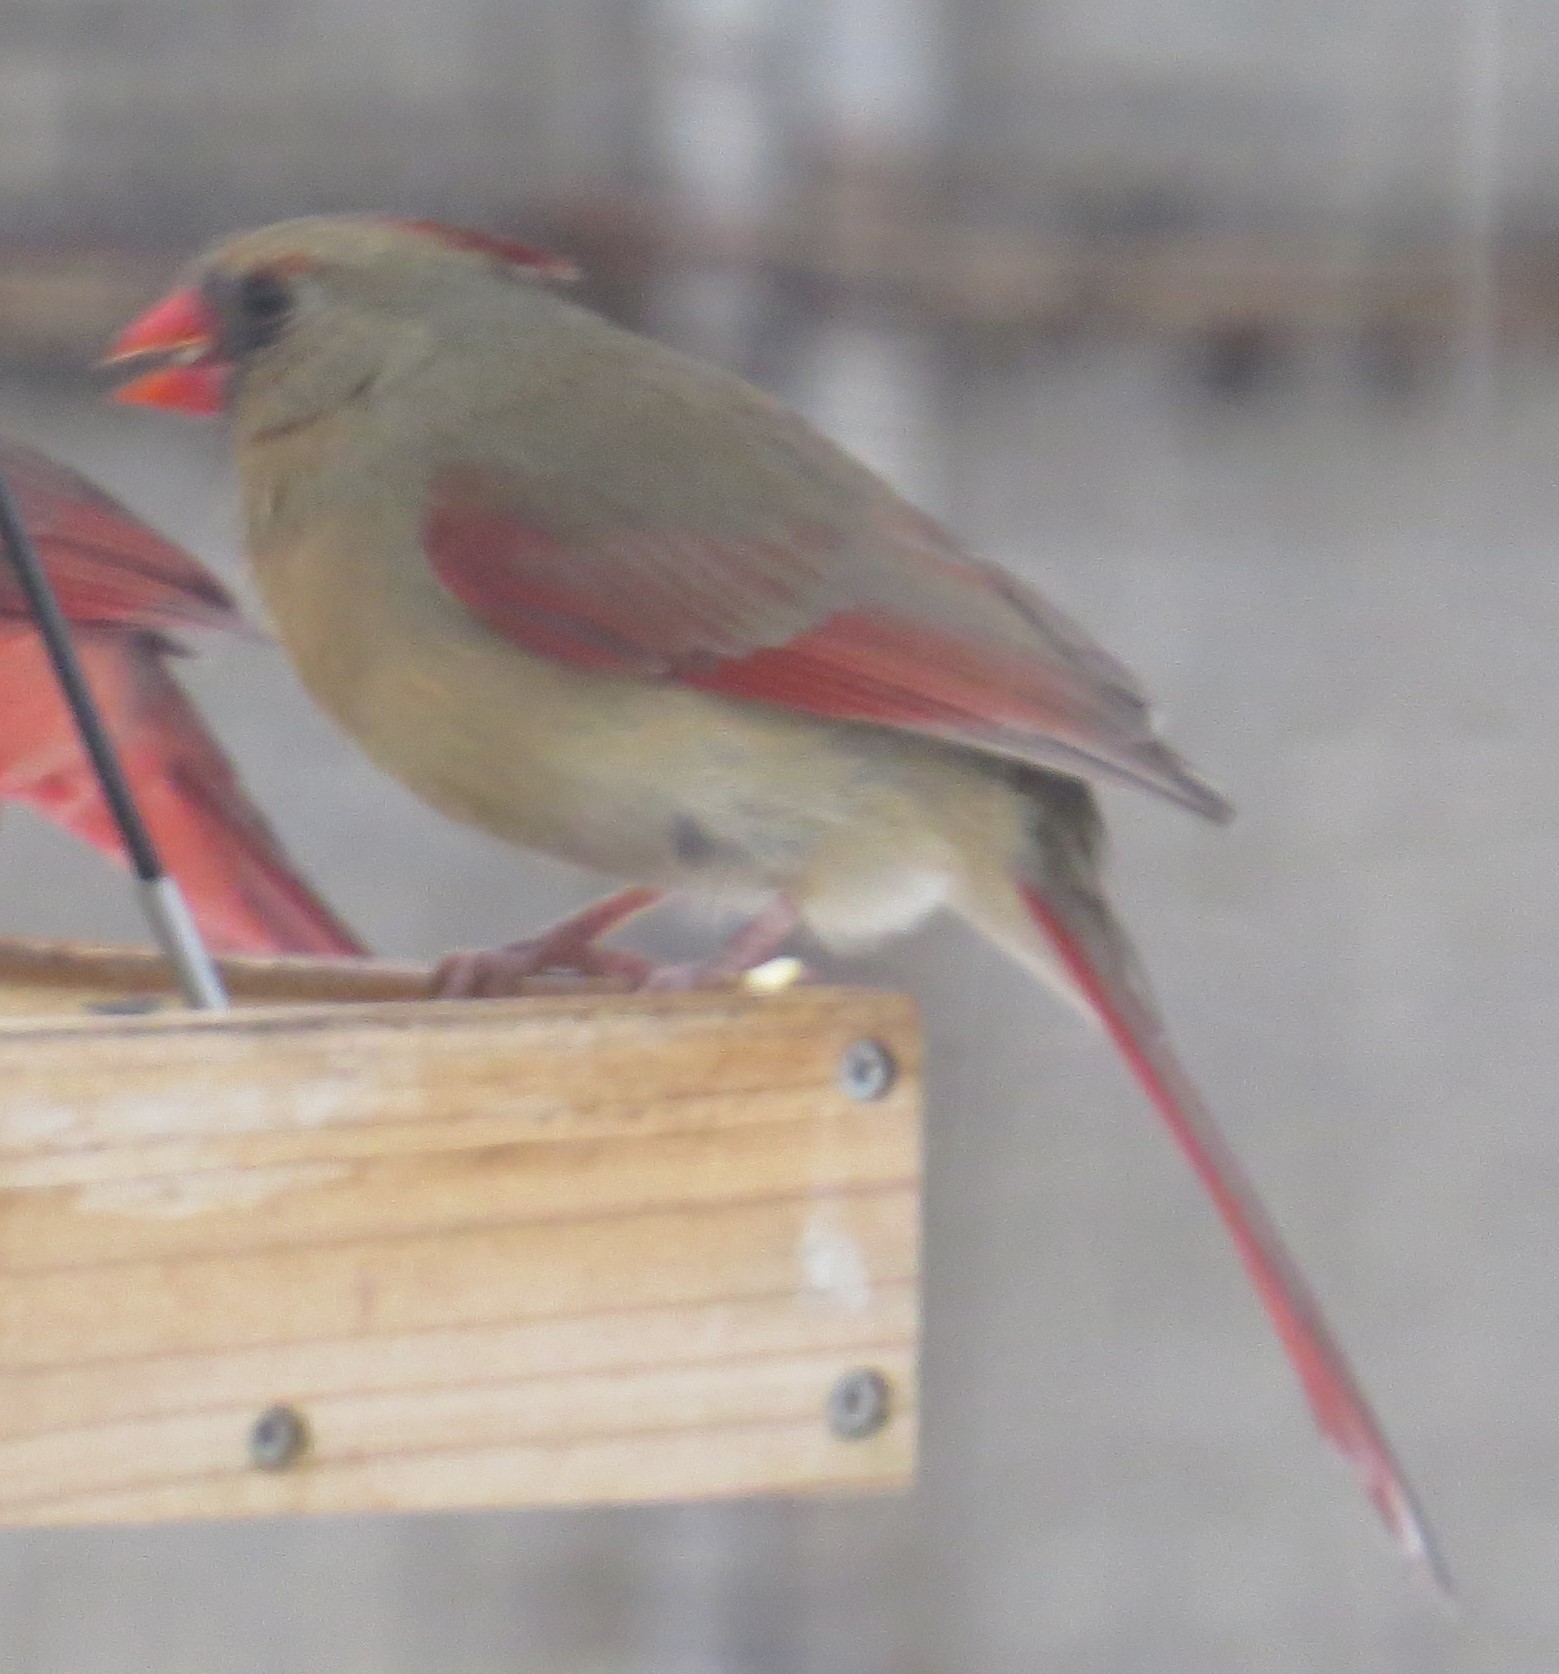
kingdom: Animalia
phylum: Chordata
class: Aves
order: Passeriformes
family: Cardinalidae
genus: Cardinalis
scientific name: Cardinalis cardinalis
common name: Northern cardinal
